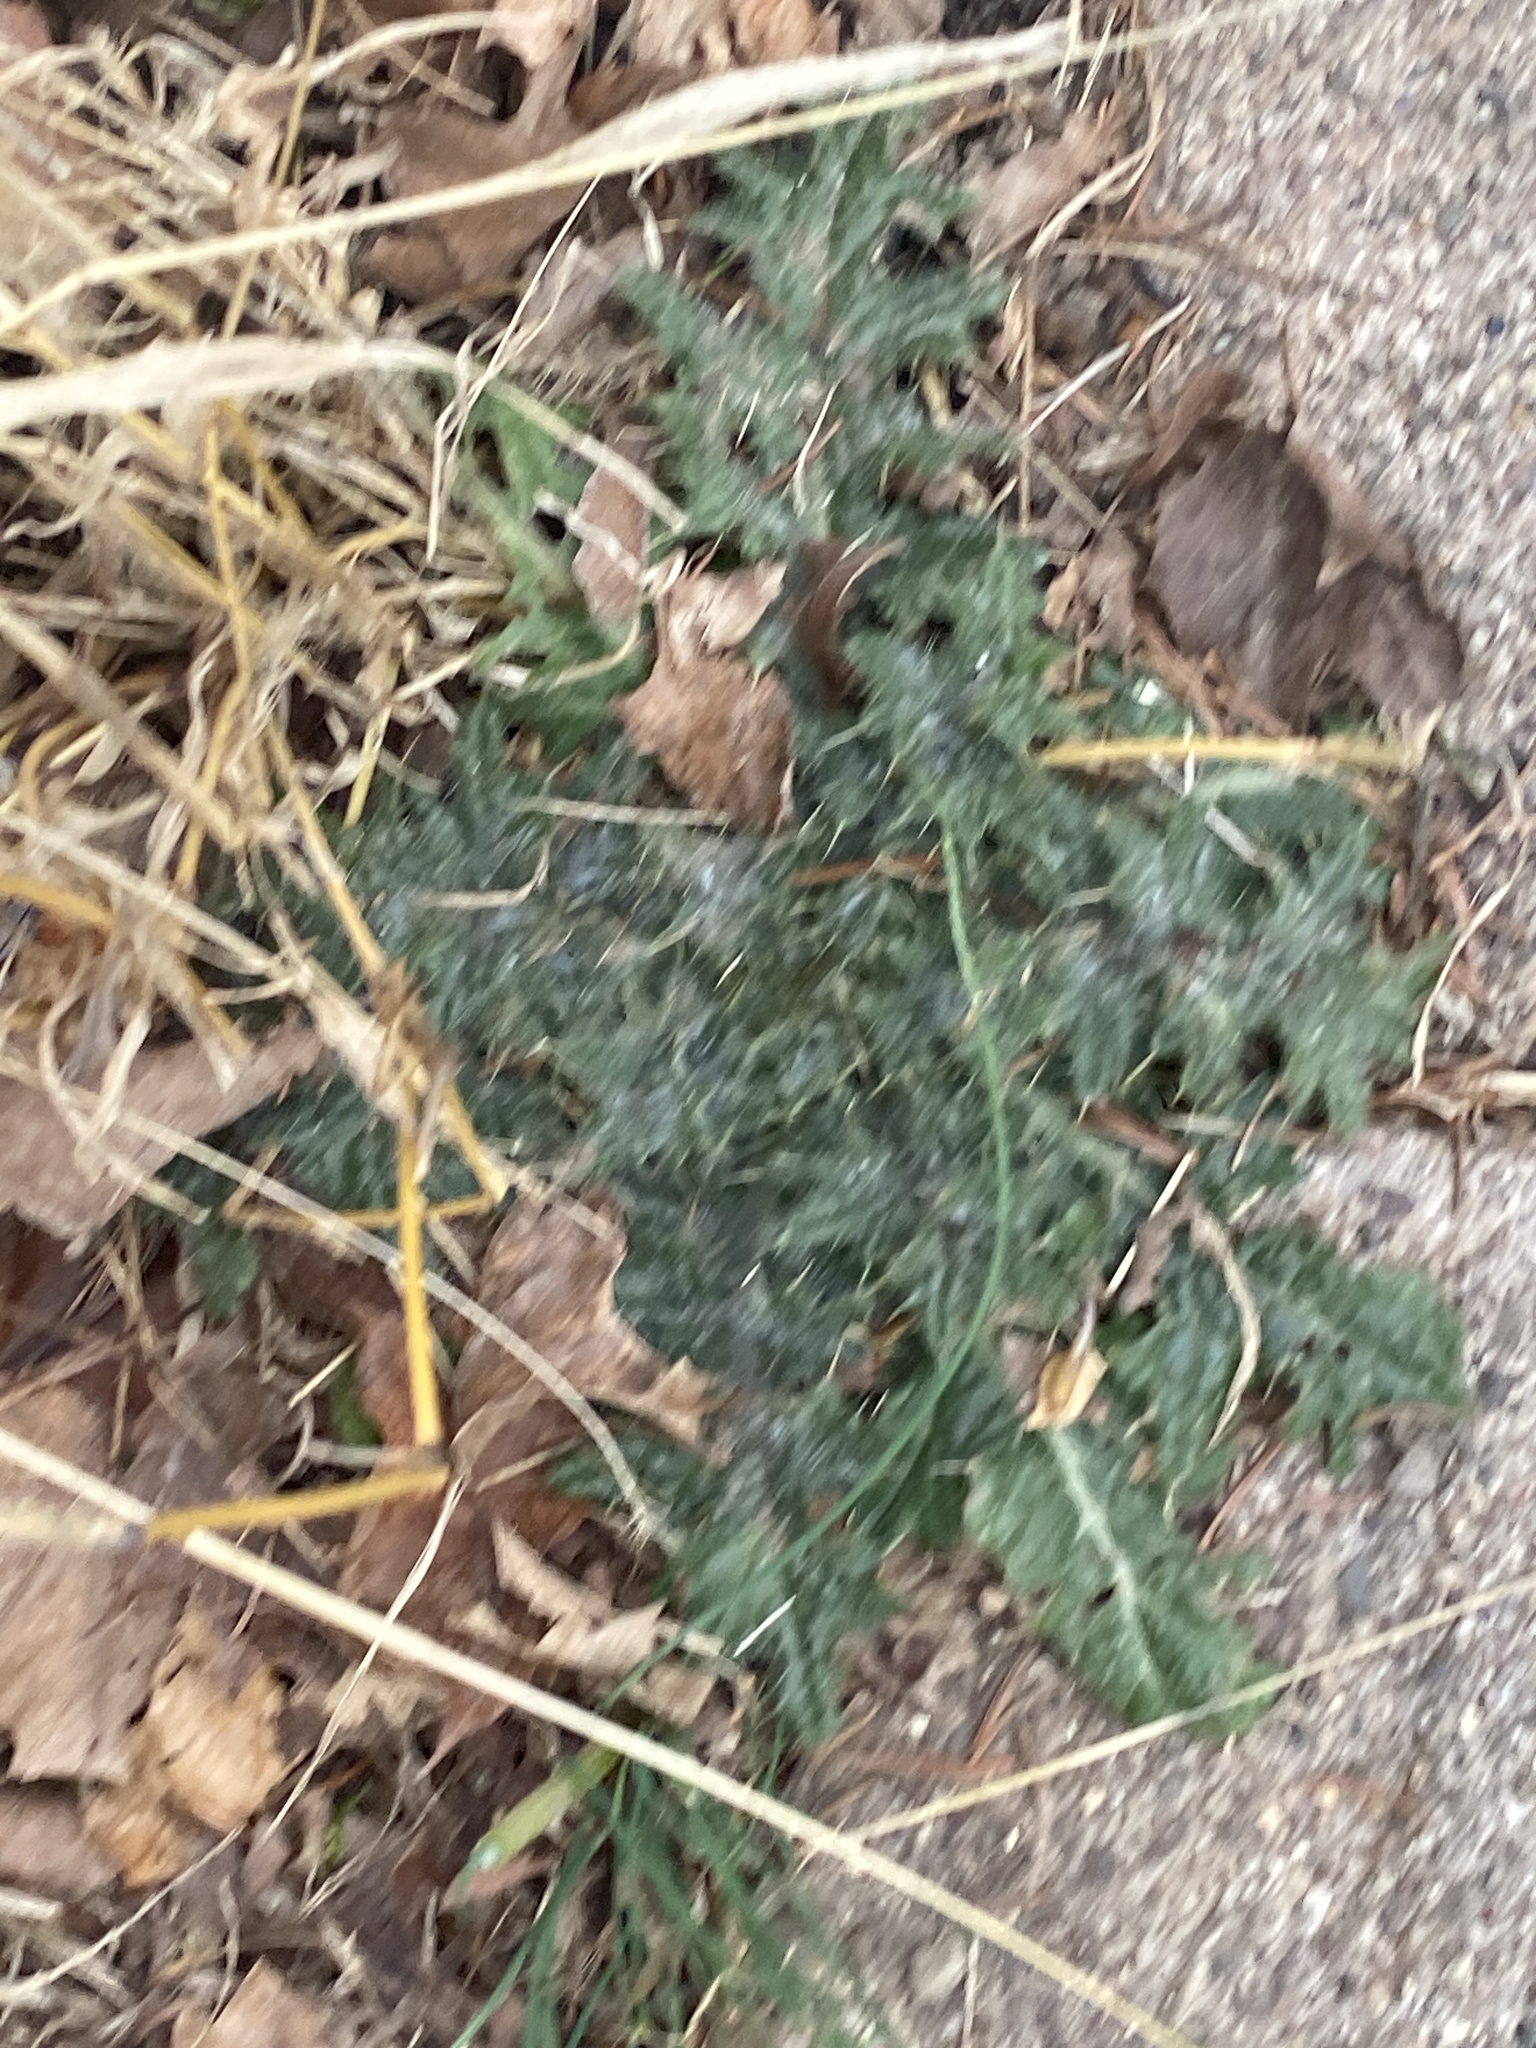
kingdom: Plantae
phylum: Tracheophyta
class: Magnoliopsida
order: Asterales
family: Asteraceae
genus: Cirsium
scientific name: Cirsium vulgare
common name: Bull thistle
